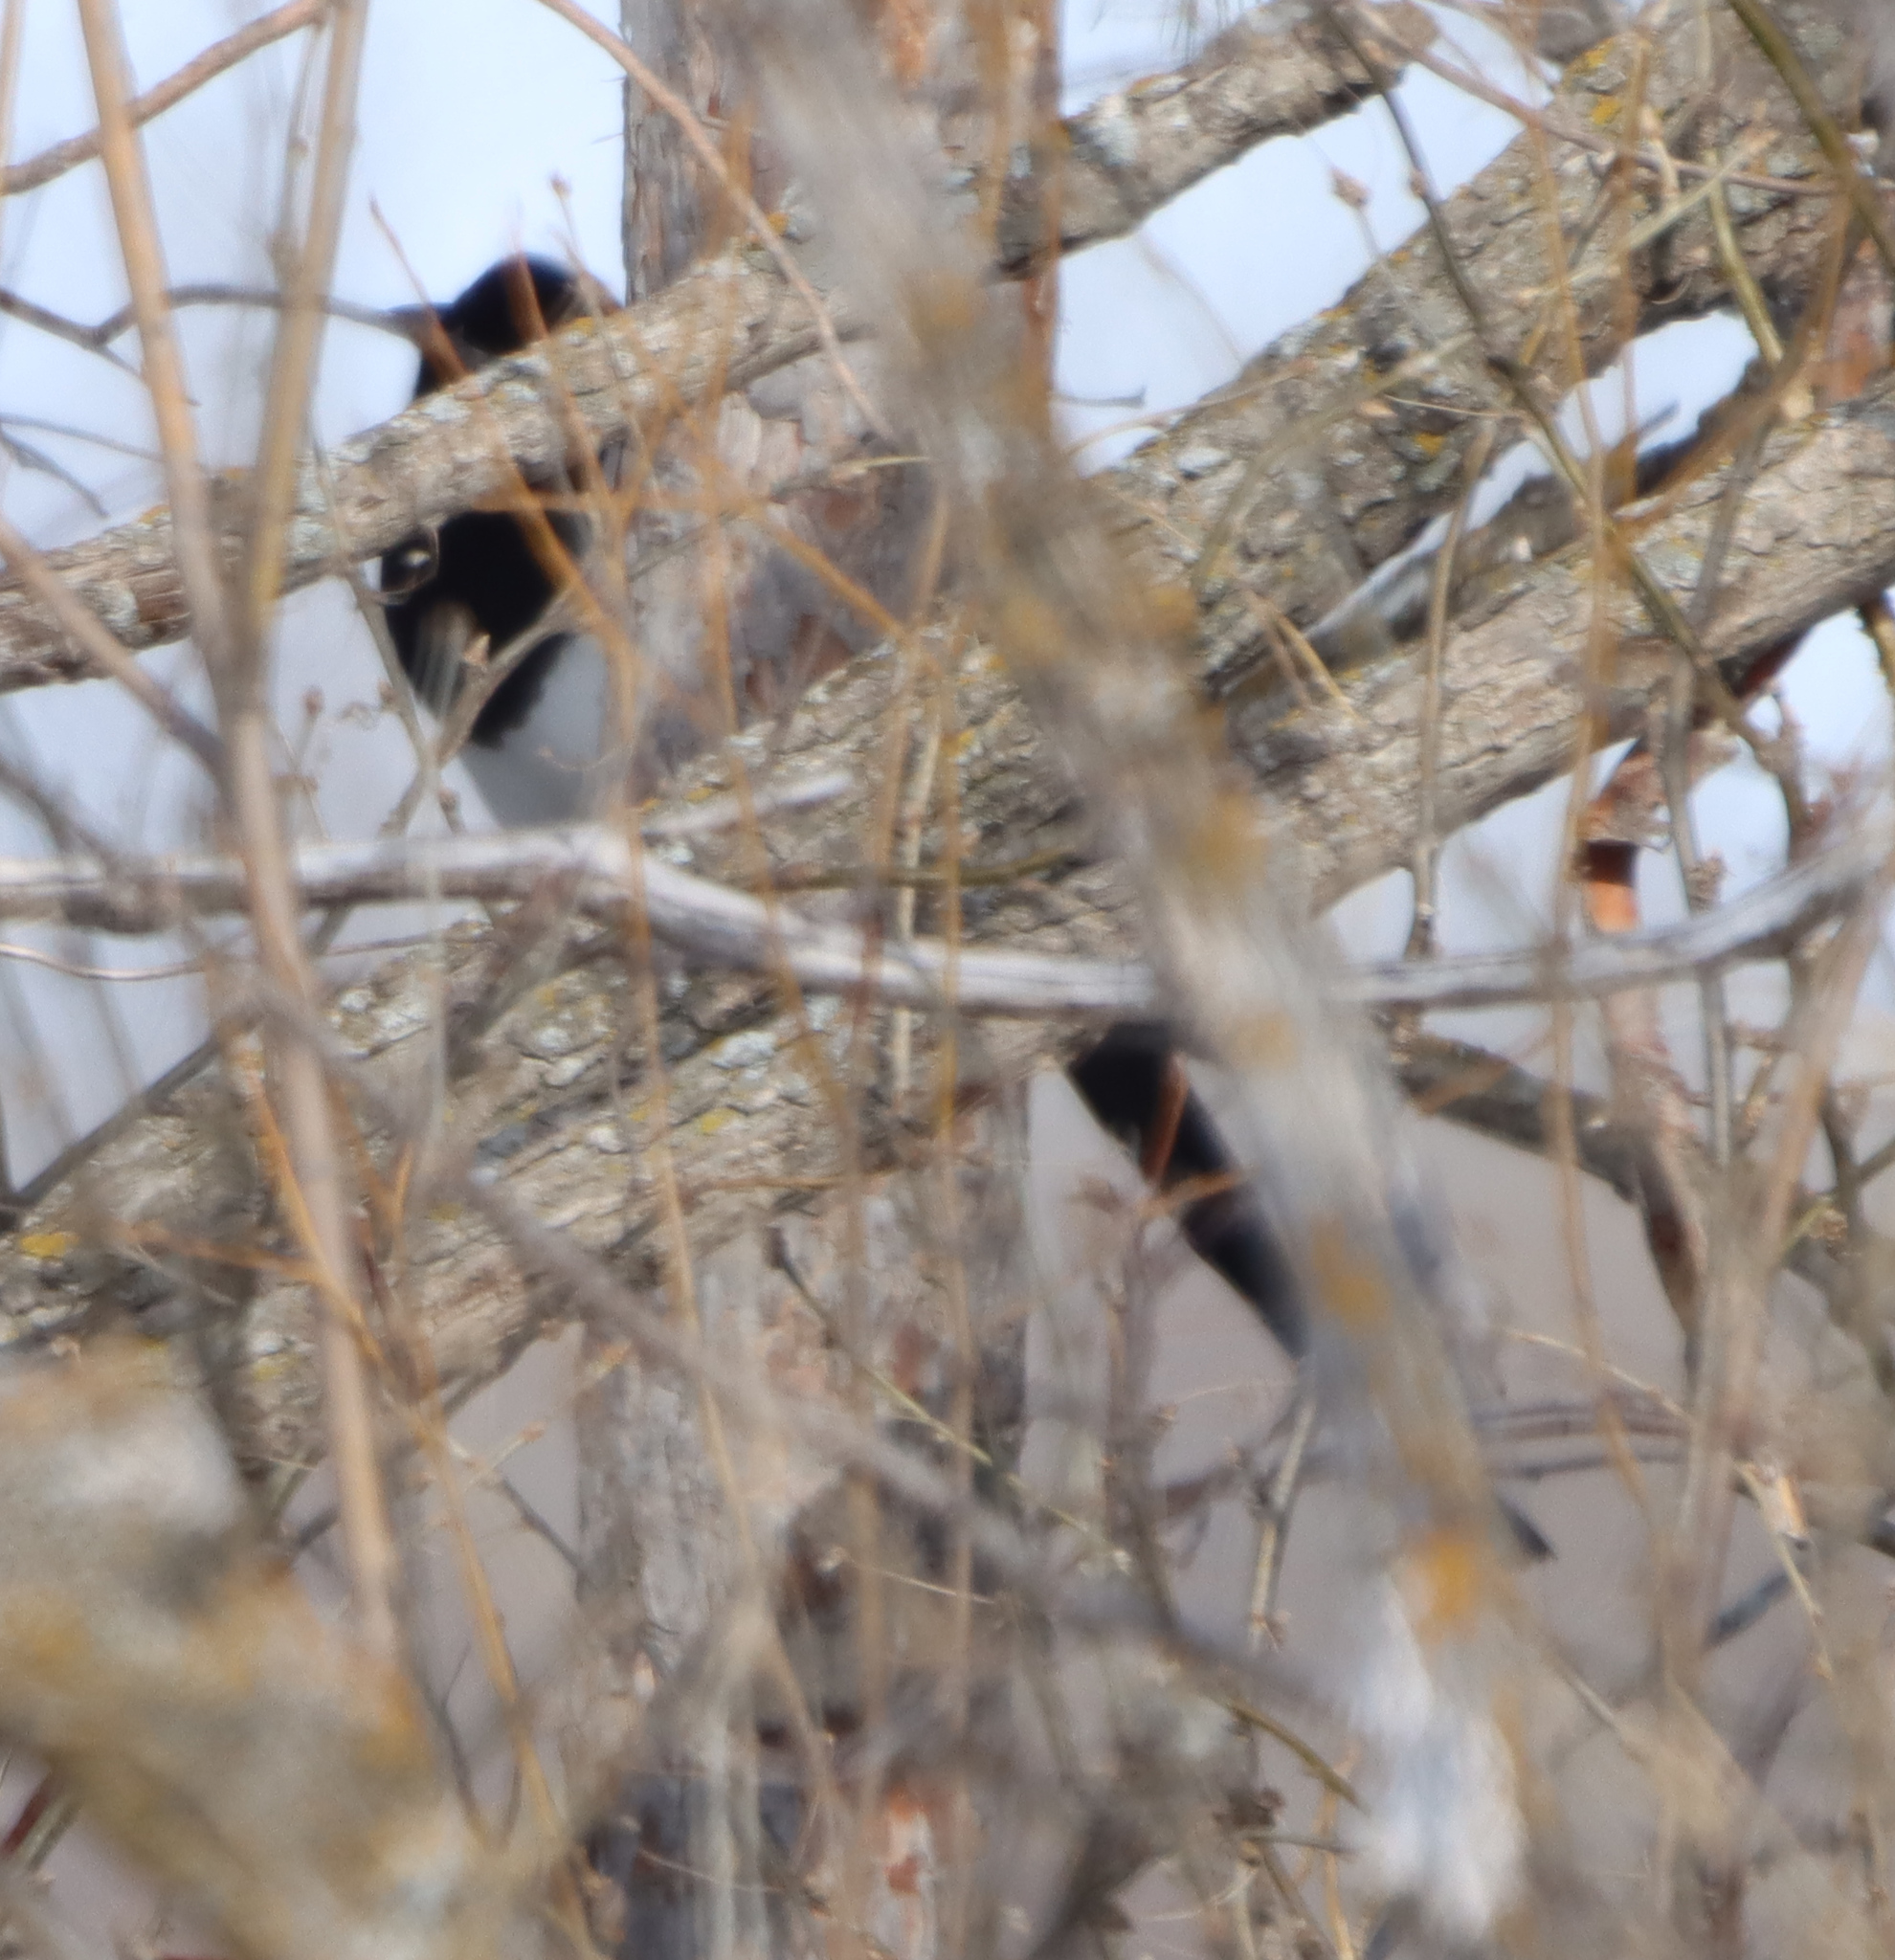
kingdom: Animalia
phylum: Chordata
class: Aves
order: Passeriformes
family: Corvidae
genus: Pica
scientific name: Pica hudsonia
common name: Black-billed magpie
